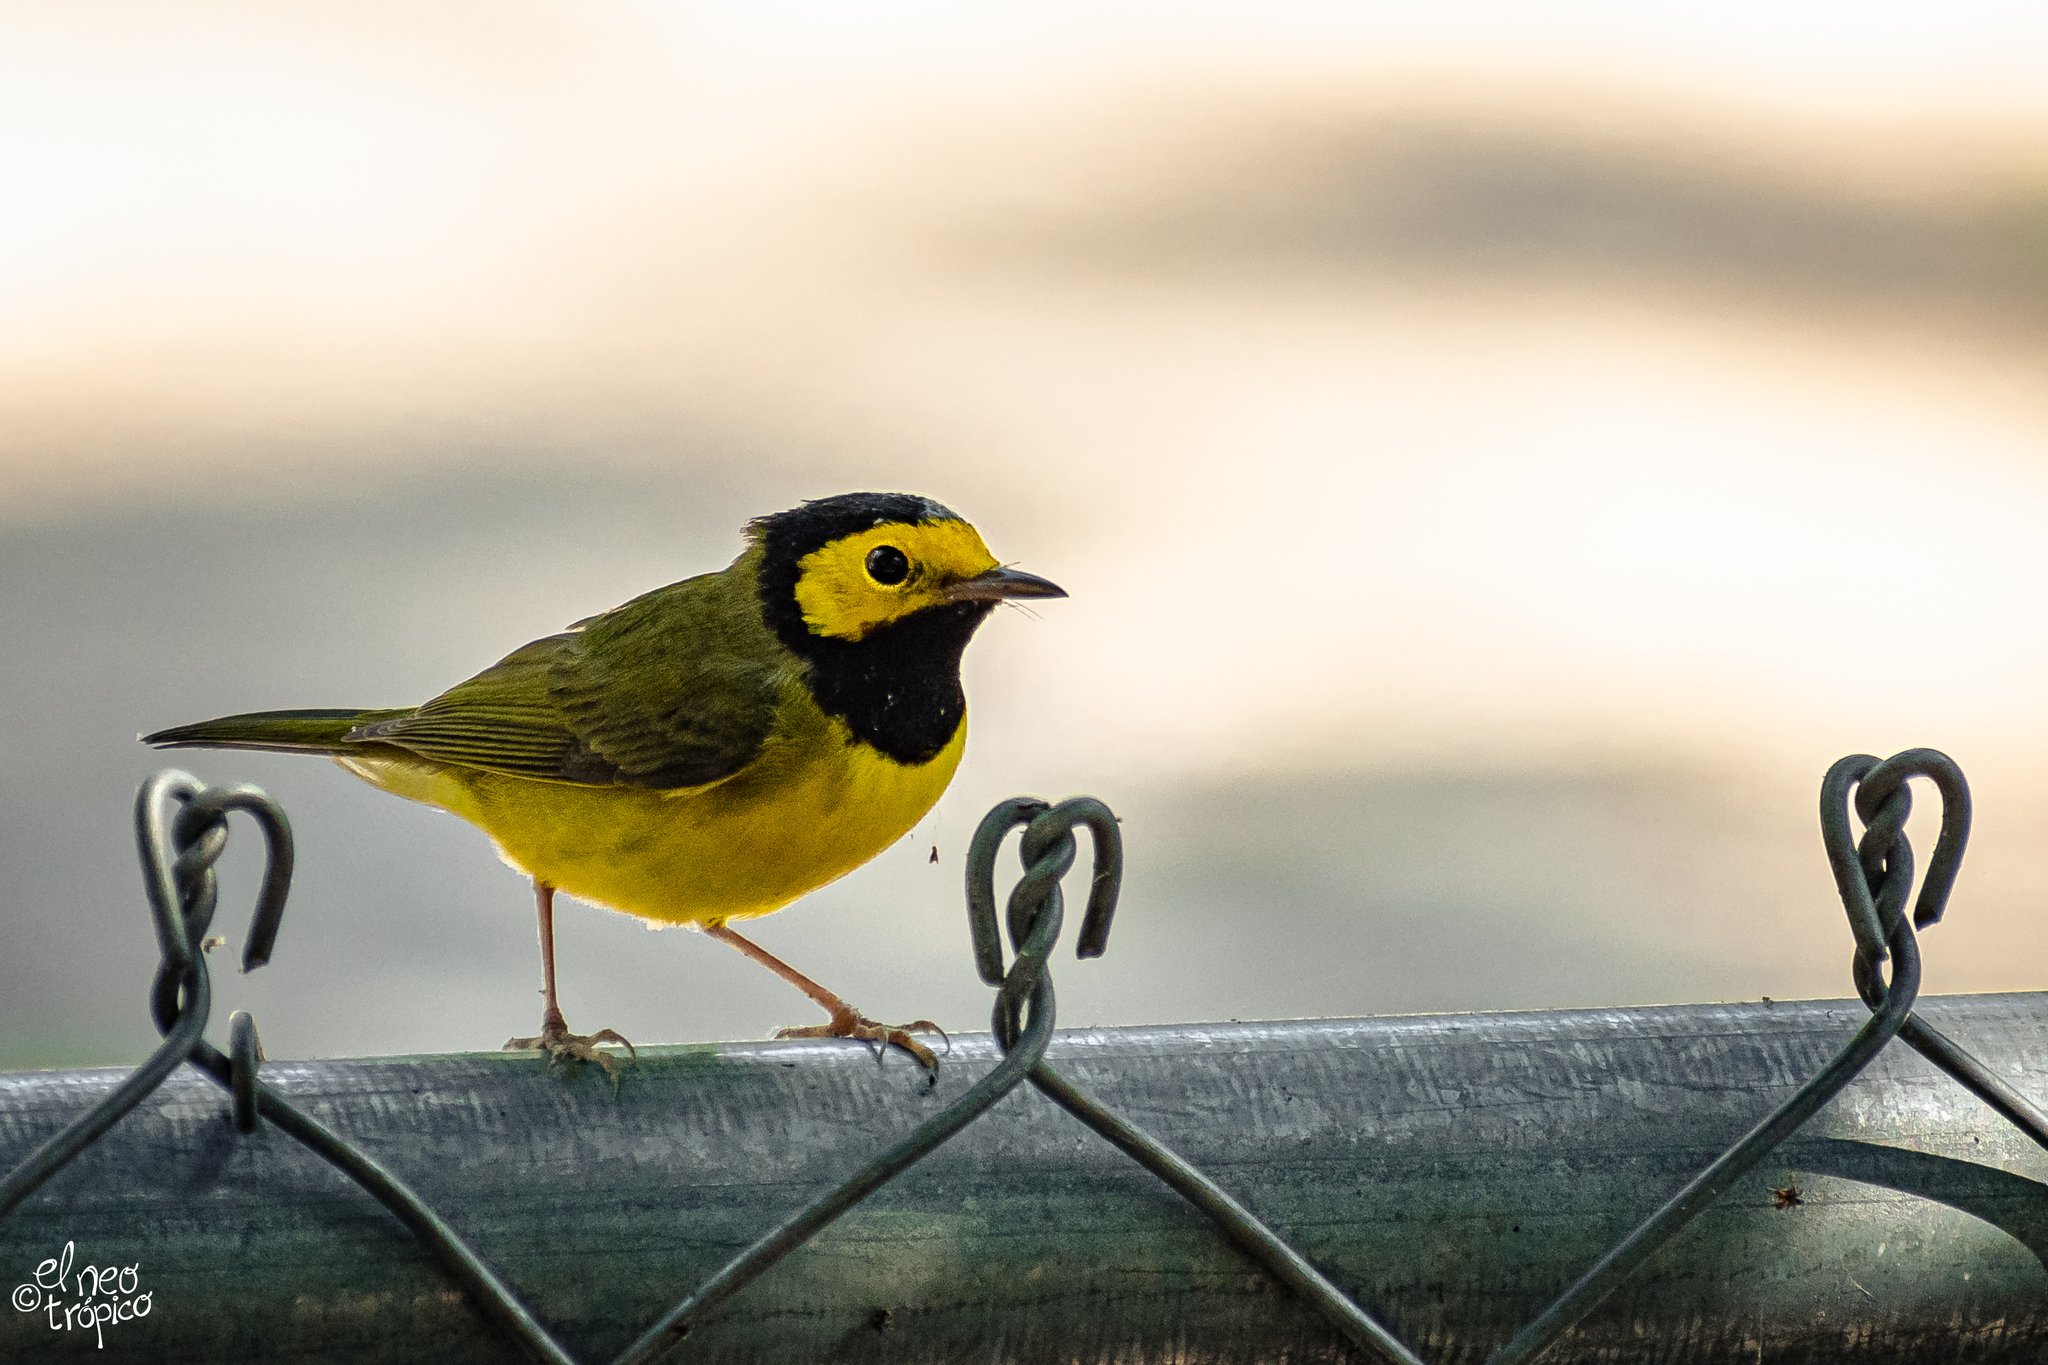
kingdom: Animalia
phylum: Chordata
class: Aves
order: Passeriformes
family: Parulidae
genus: Setophaga
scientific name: Setophaga citrina
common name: Hooded warbler
